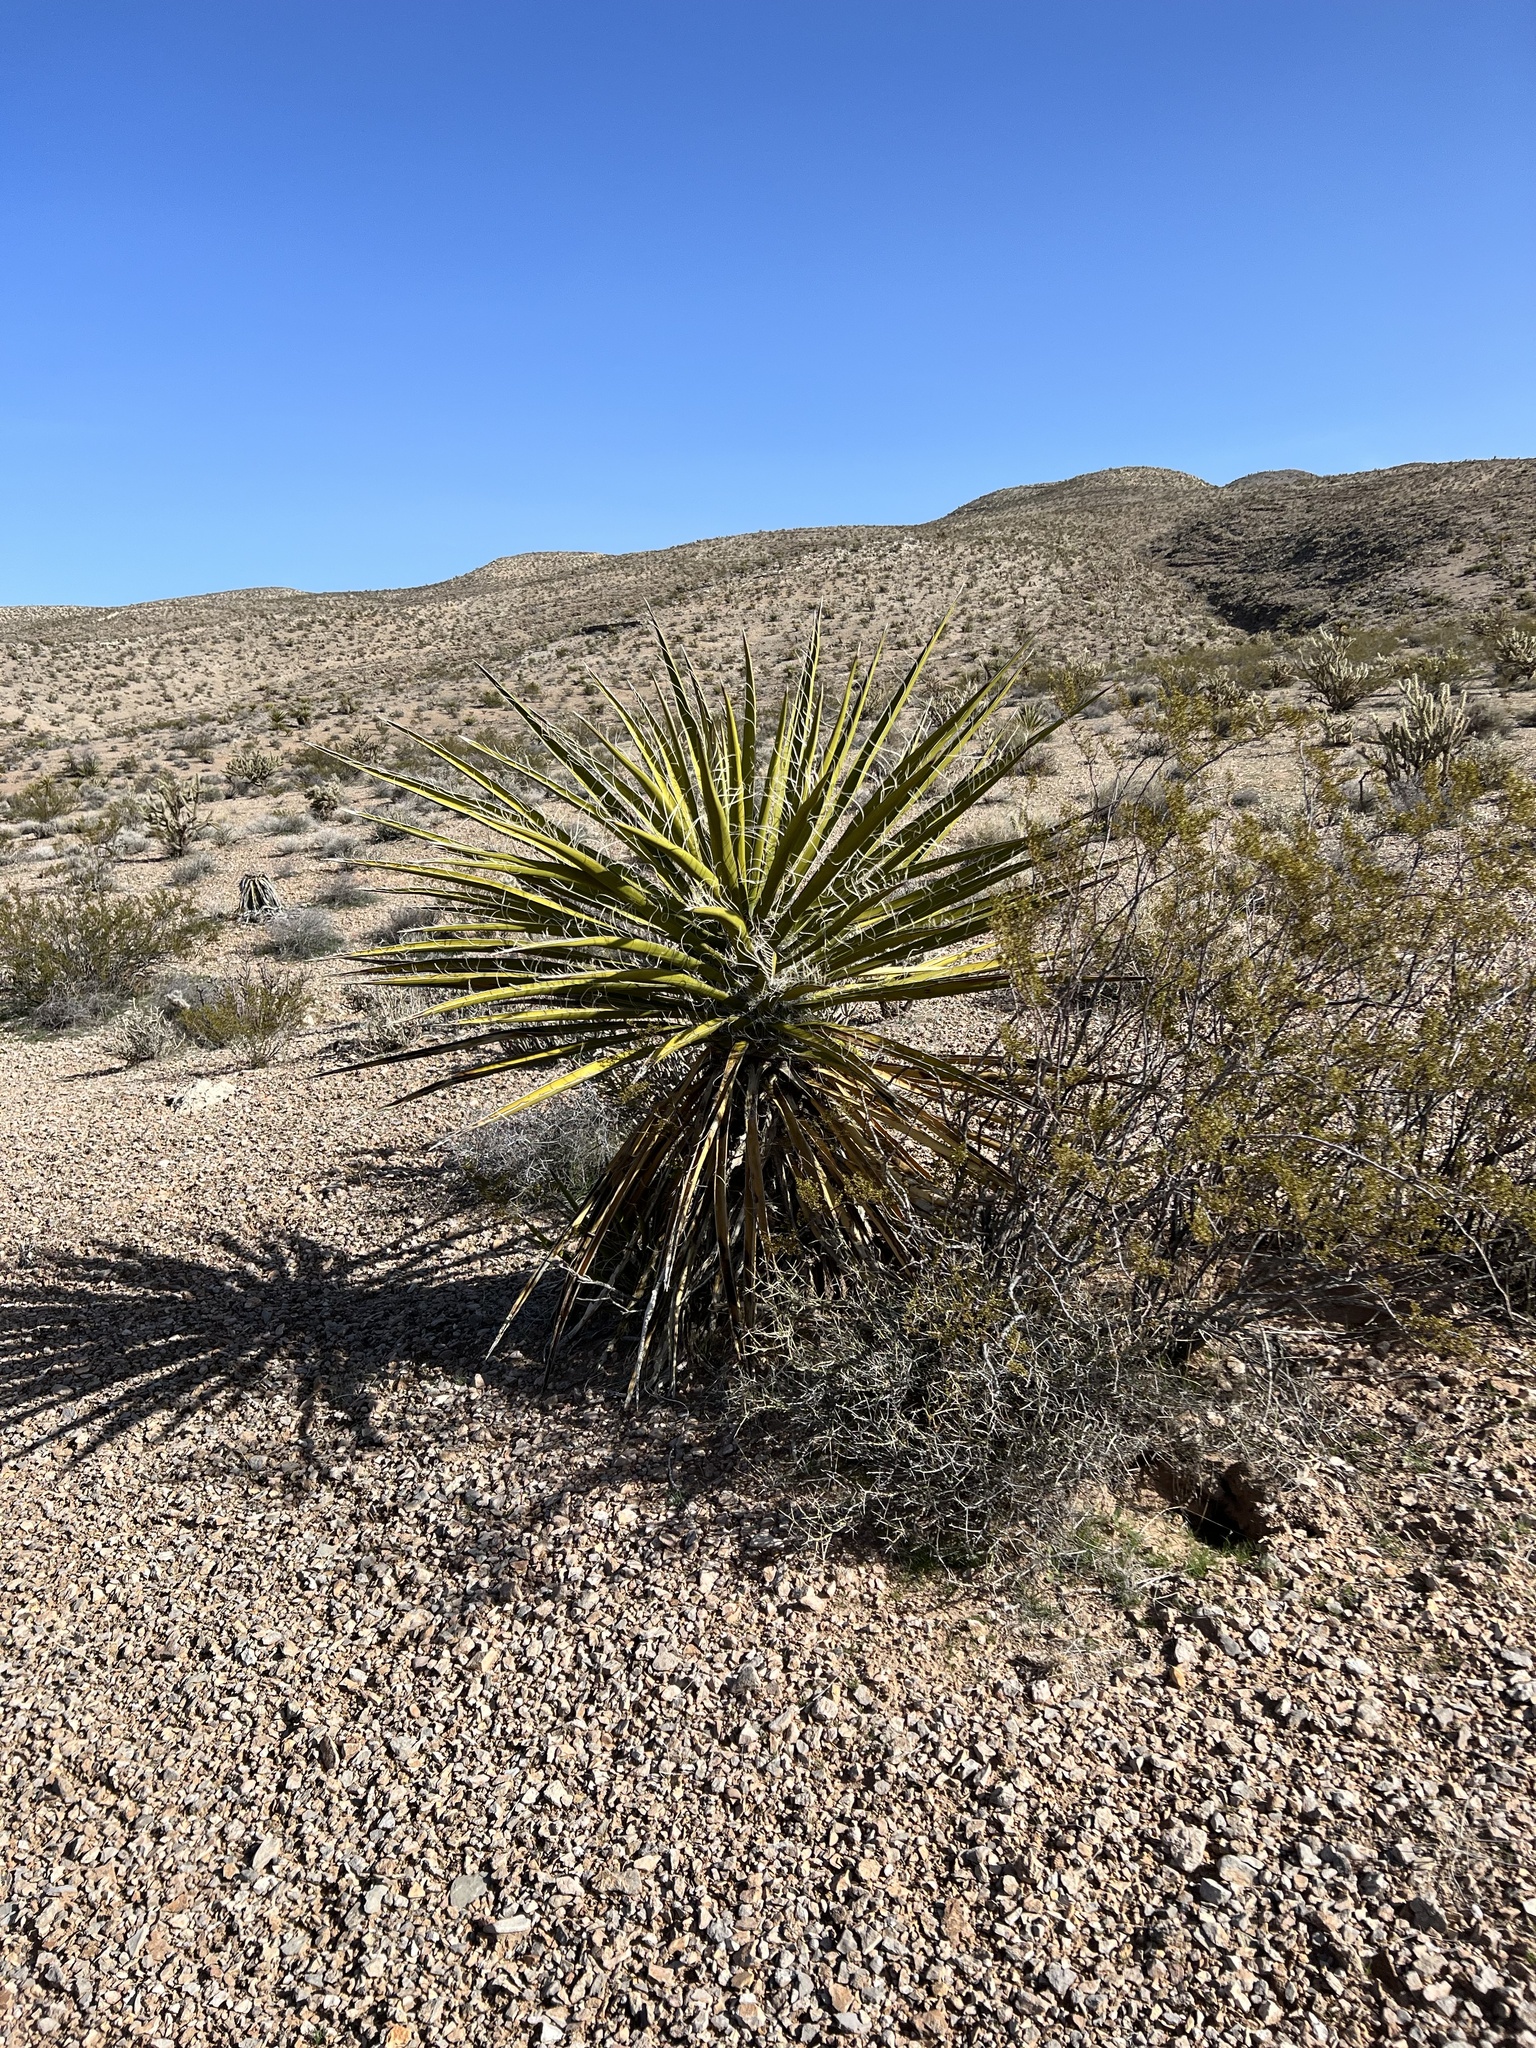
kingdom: Plantae
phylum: Tracheophyta
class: Liliopsida
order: Asparagales
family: Asparagaceae
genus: Yucca
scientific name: Yucca schidigera
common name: Mojave yucca
